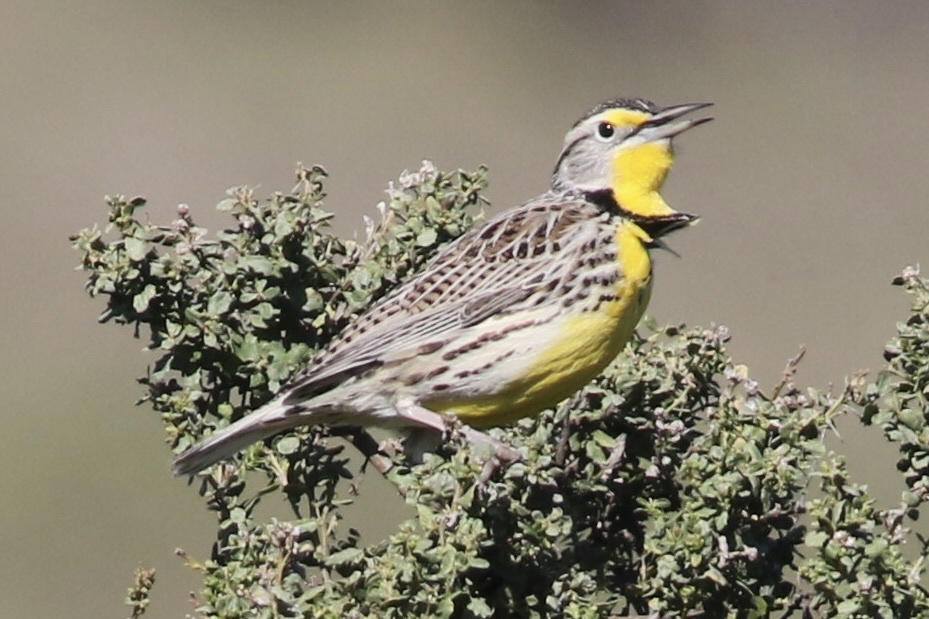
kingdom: Animalia
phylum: Chordata
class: Aves
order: Passeriformes
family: Icteridae
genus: Sturnella
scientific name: Sturnella neglecta
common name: Western meadowlark
